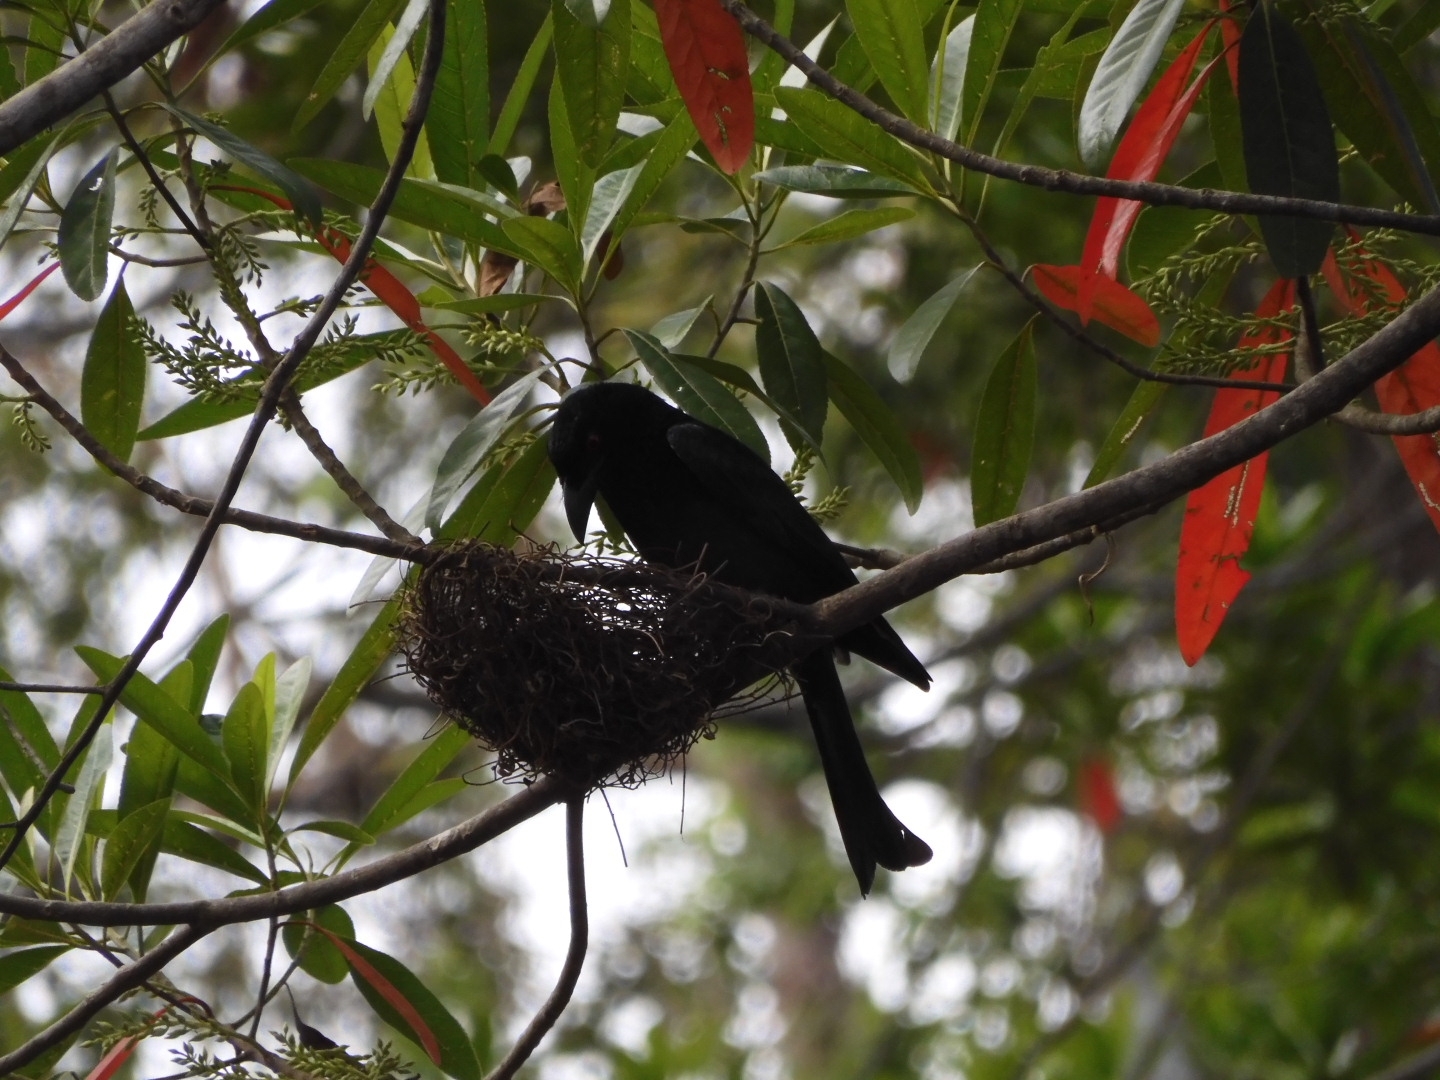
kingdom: Animalia
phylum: Chordata
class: Aves
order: Passeriformes
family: Dicruridae
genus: Dicrurus
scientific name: Dicrurus bracteatus
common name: Spangled drongo
